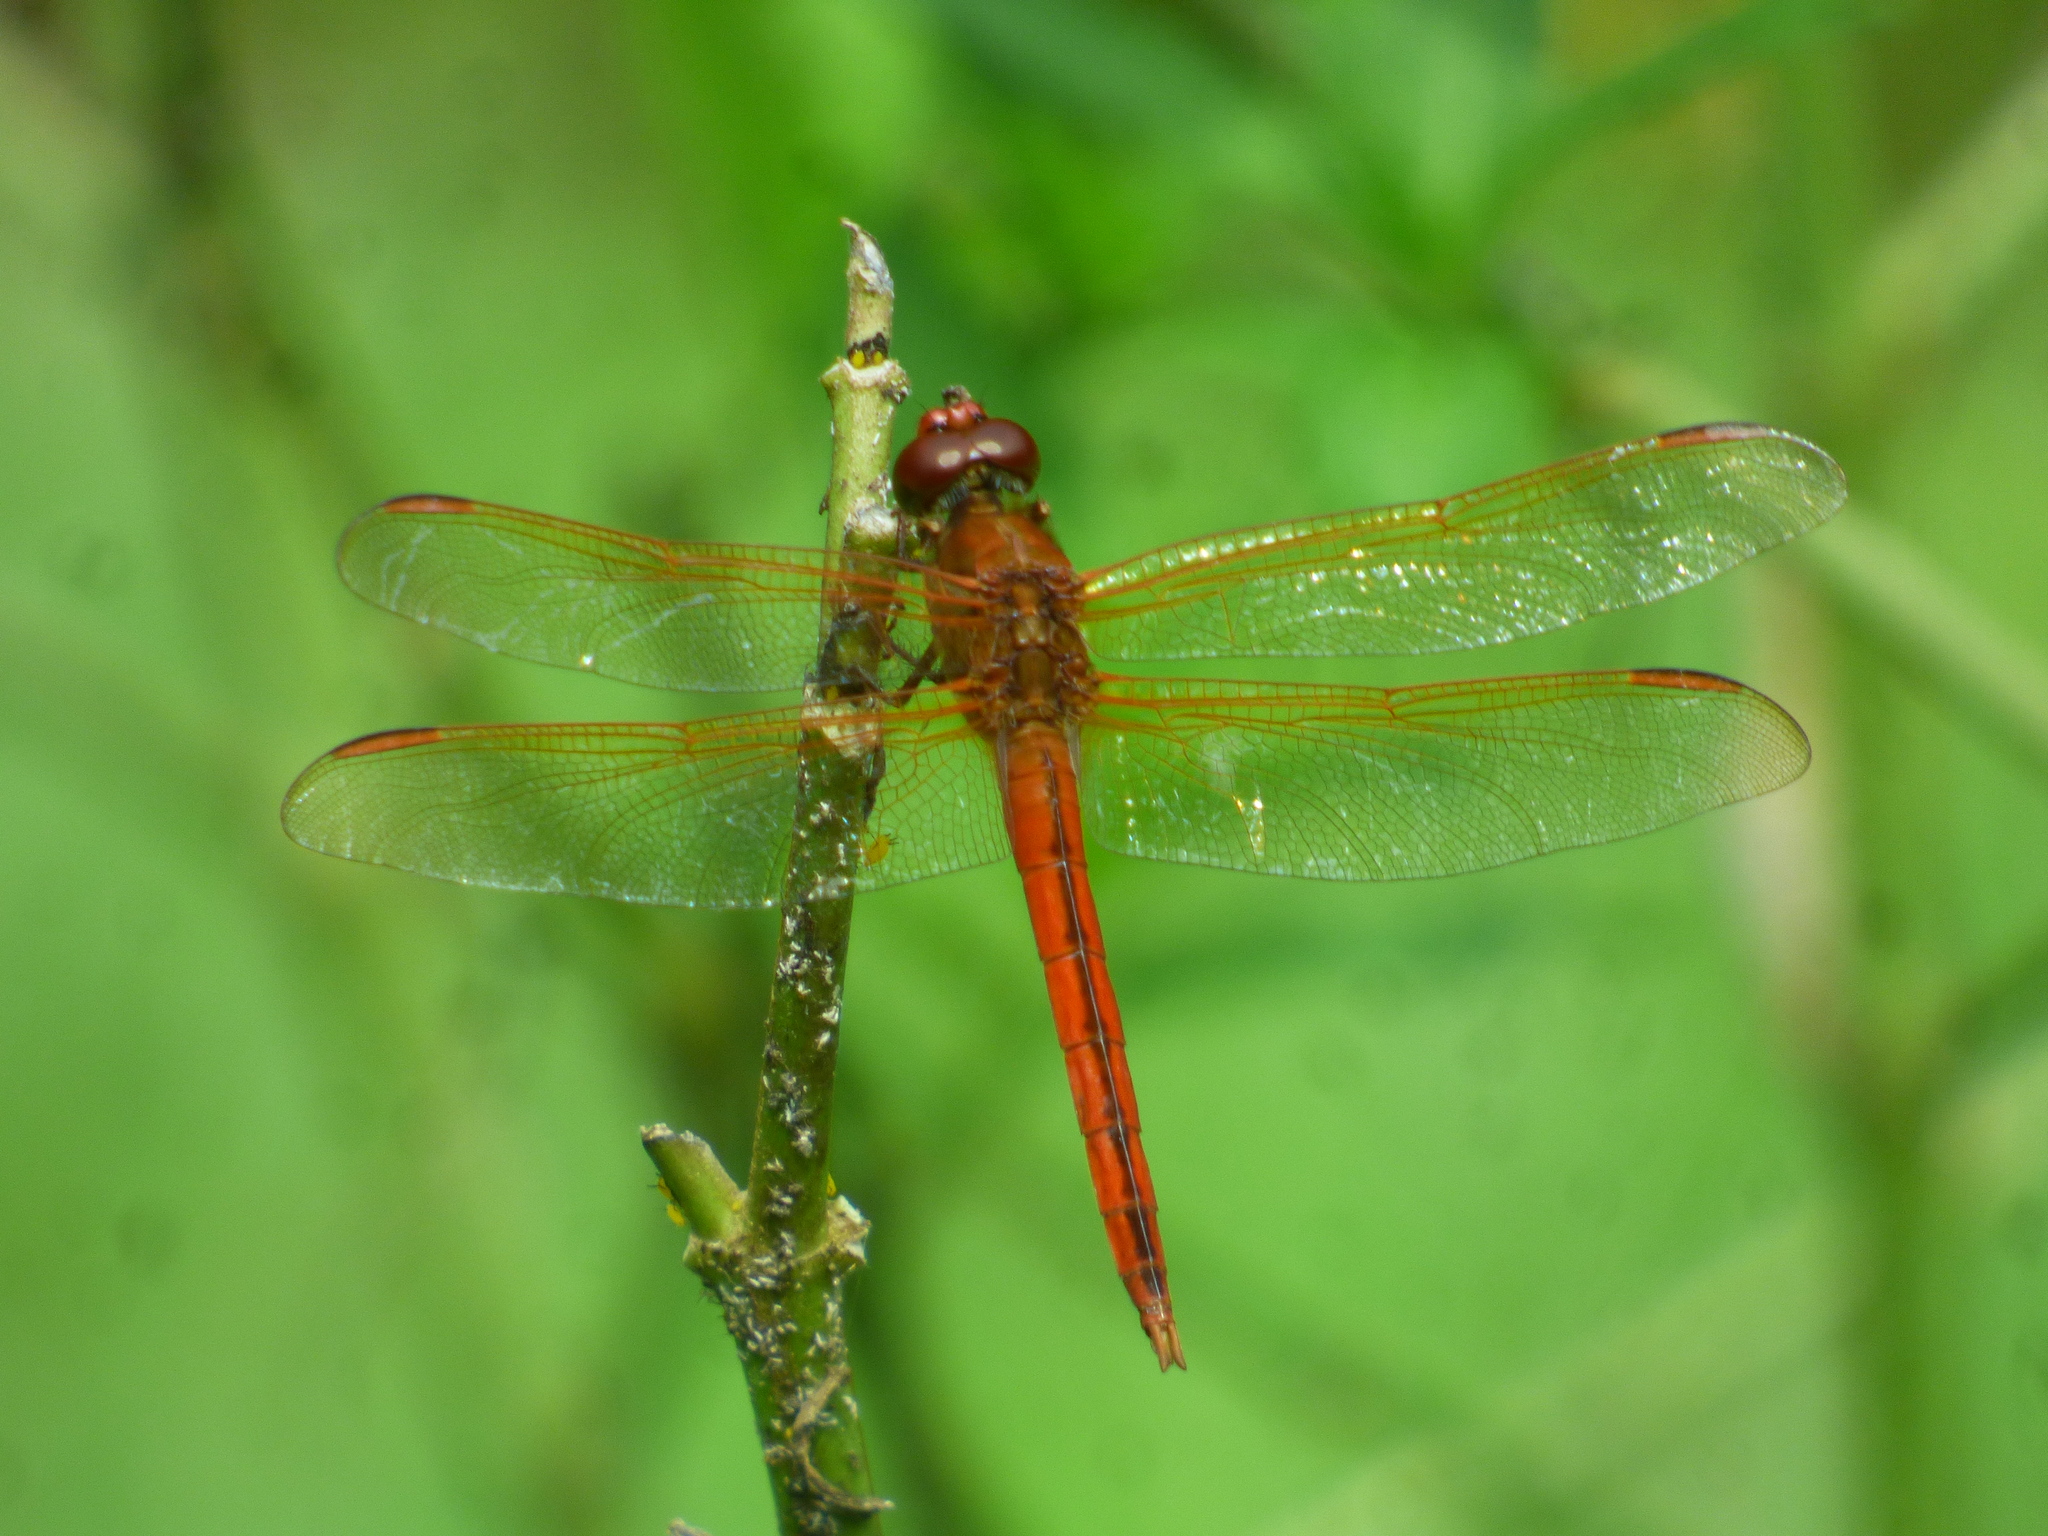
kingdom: Animalia
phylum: Arthropoda
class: Insecta
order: Odonata
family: Libellulidae
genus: Libellula
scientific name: Libellula needhami
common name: Needham's skimmer
